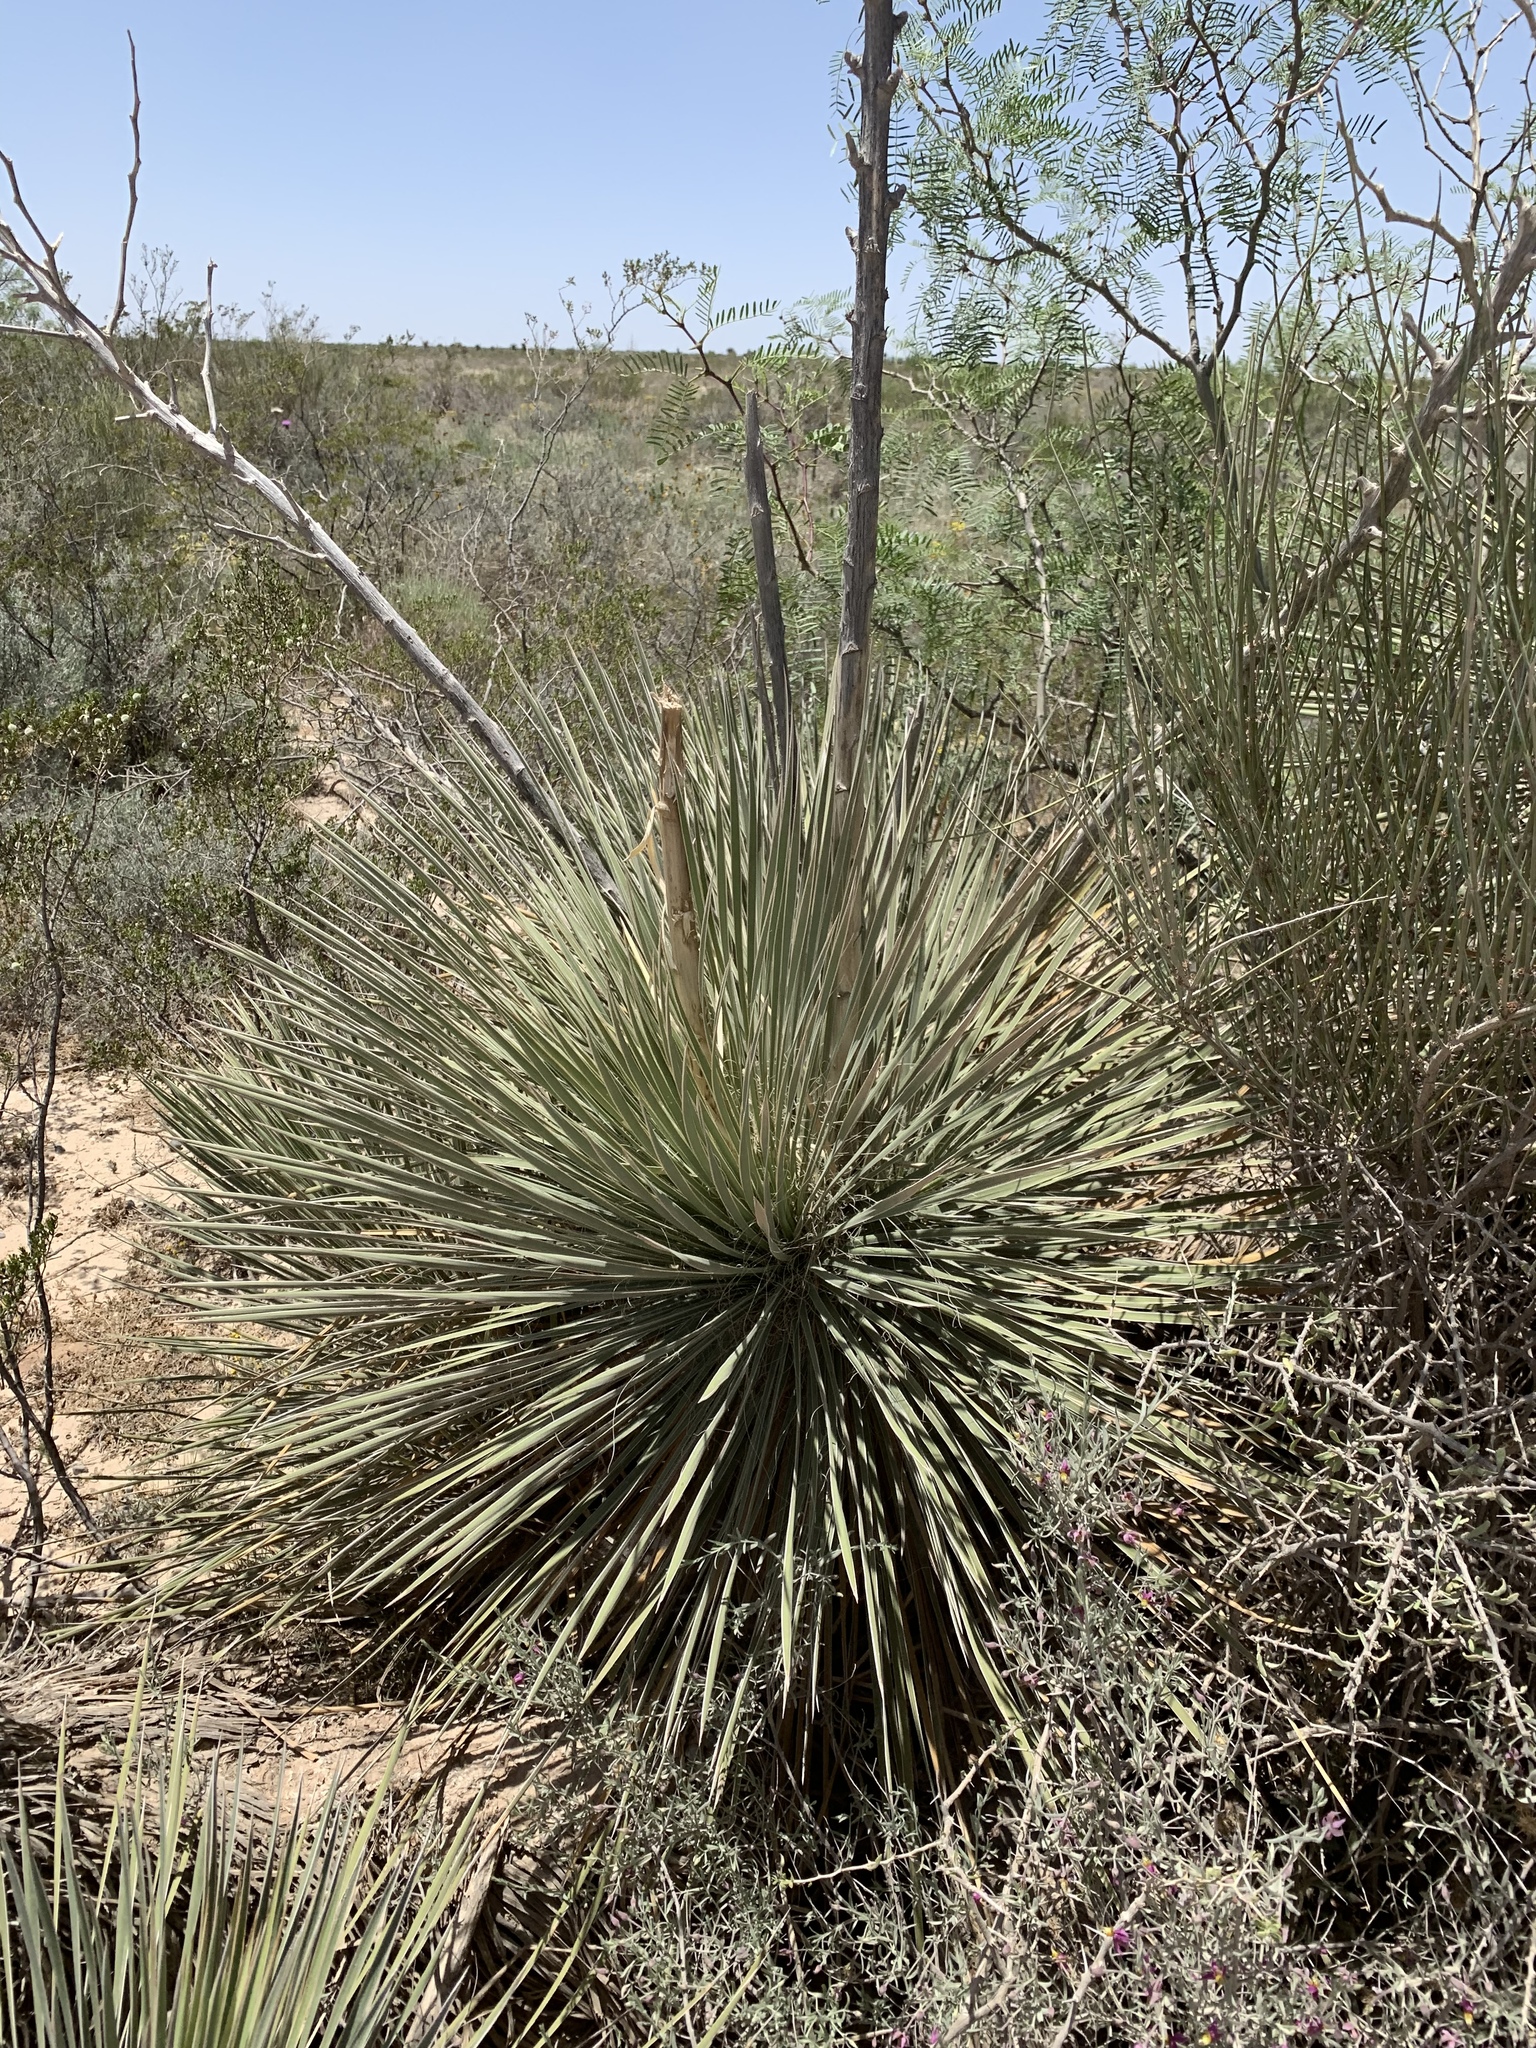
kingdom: Plantae
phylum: Tracheophyta
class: Liliopsida
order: Asparagales
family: Asparagaceae
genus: Yucca
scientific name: Yucca elata
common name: Palmella
